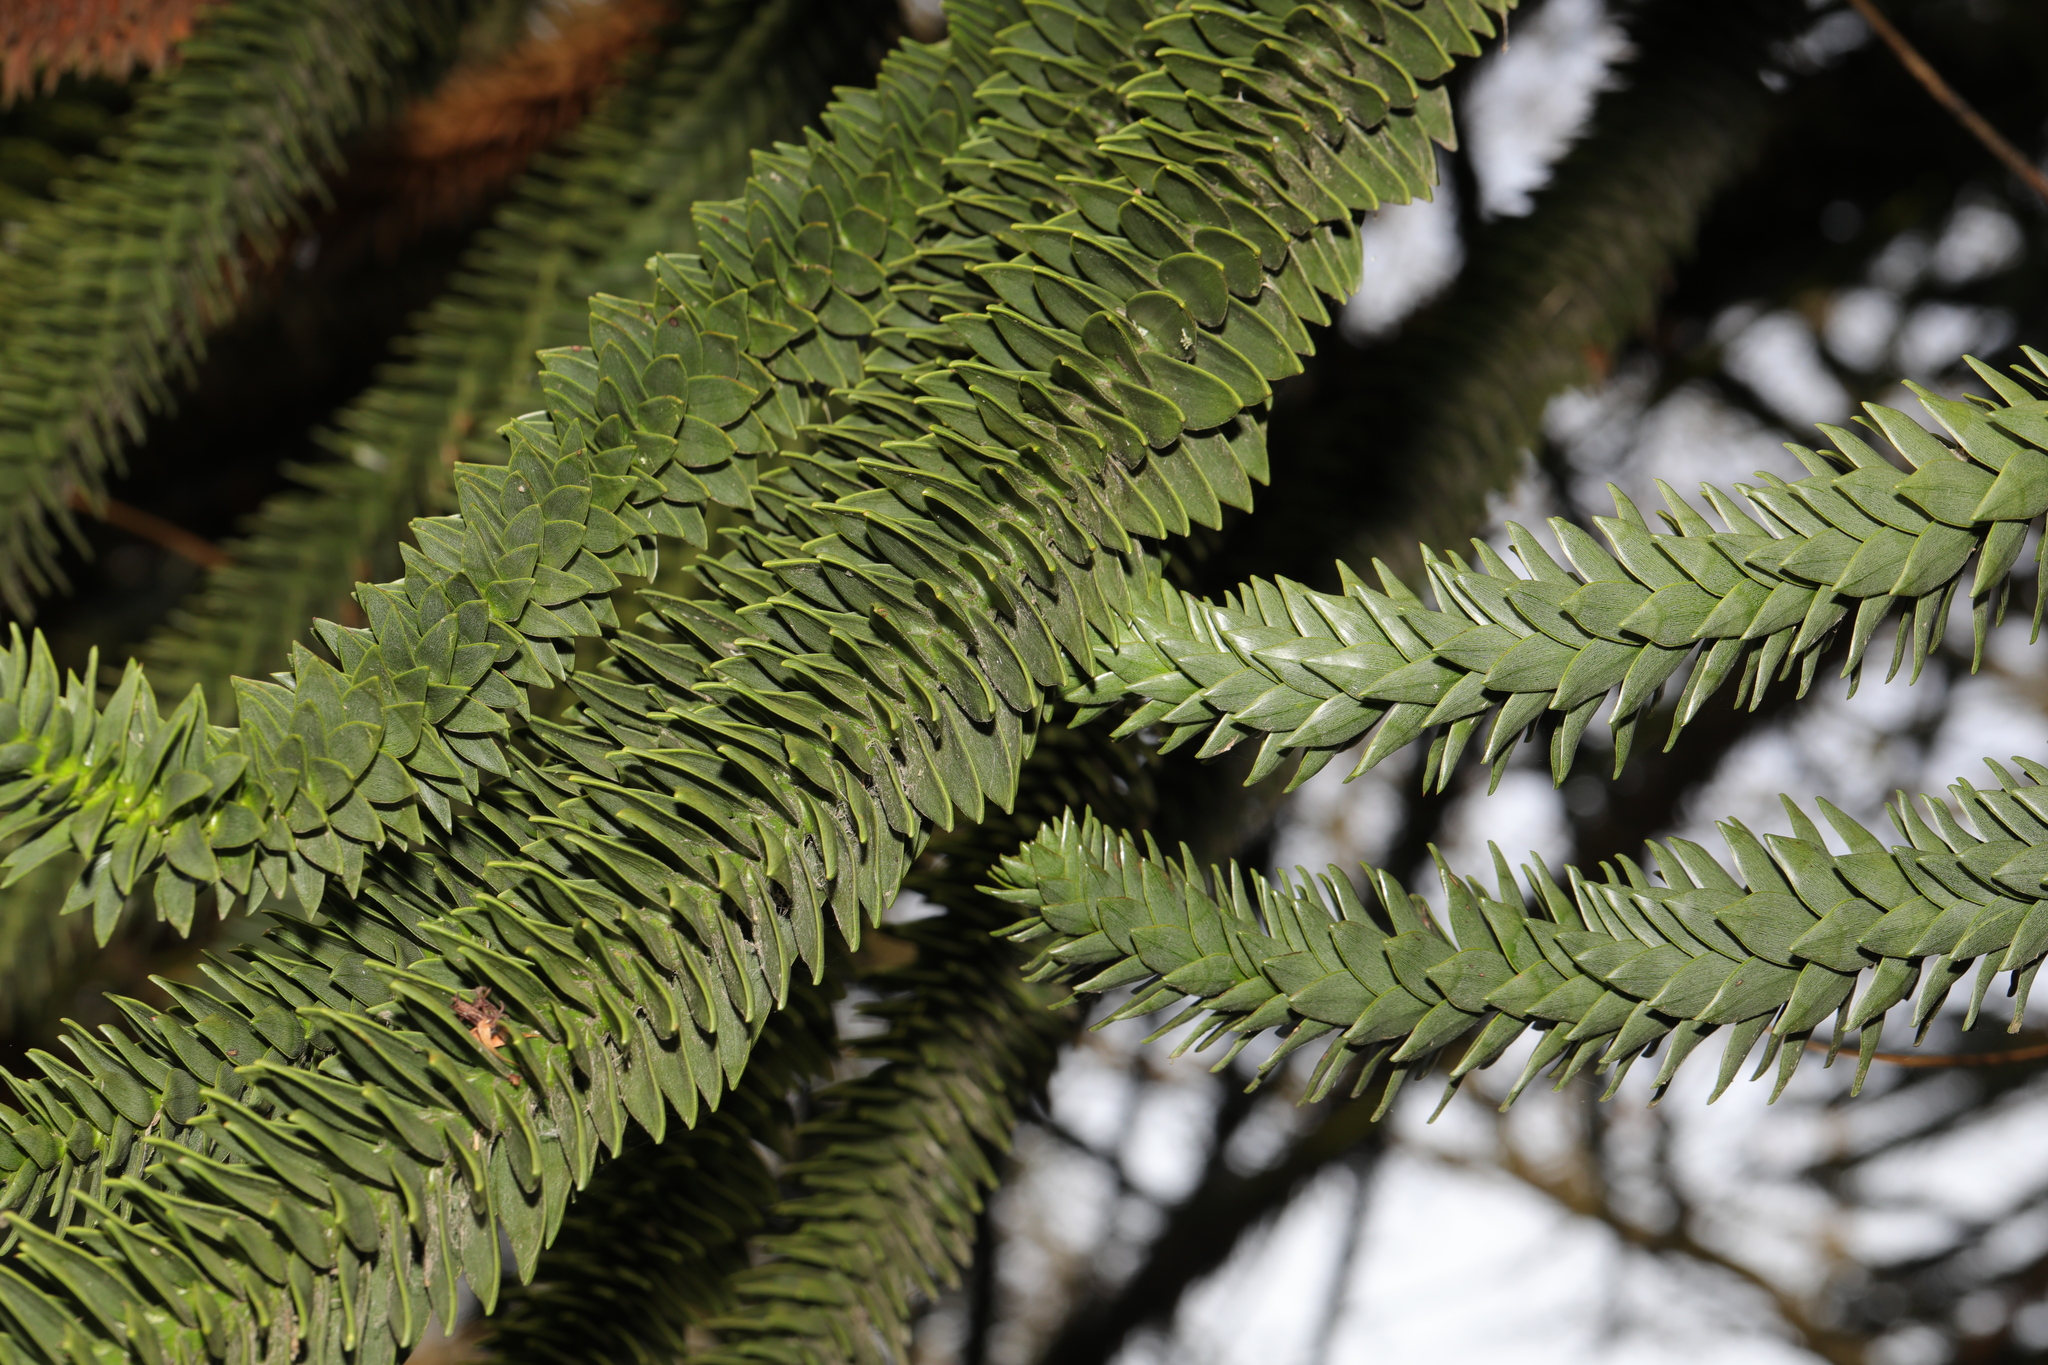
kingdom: Plantae
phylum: Tracheophyta
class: Pinopsida
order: Pinales
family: Araucariaceae
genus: Araucaria
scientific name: Araucaria araucana
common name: Monkey-puzzle
